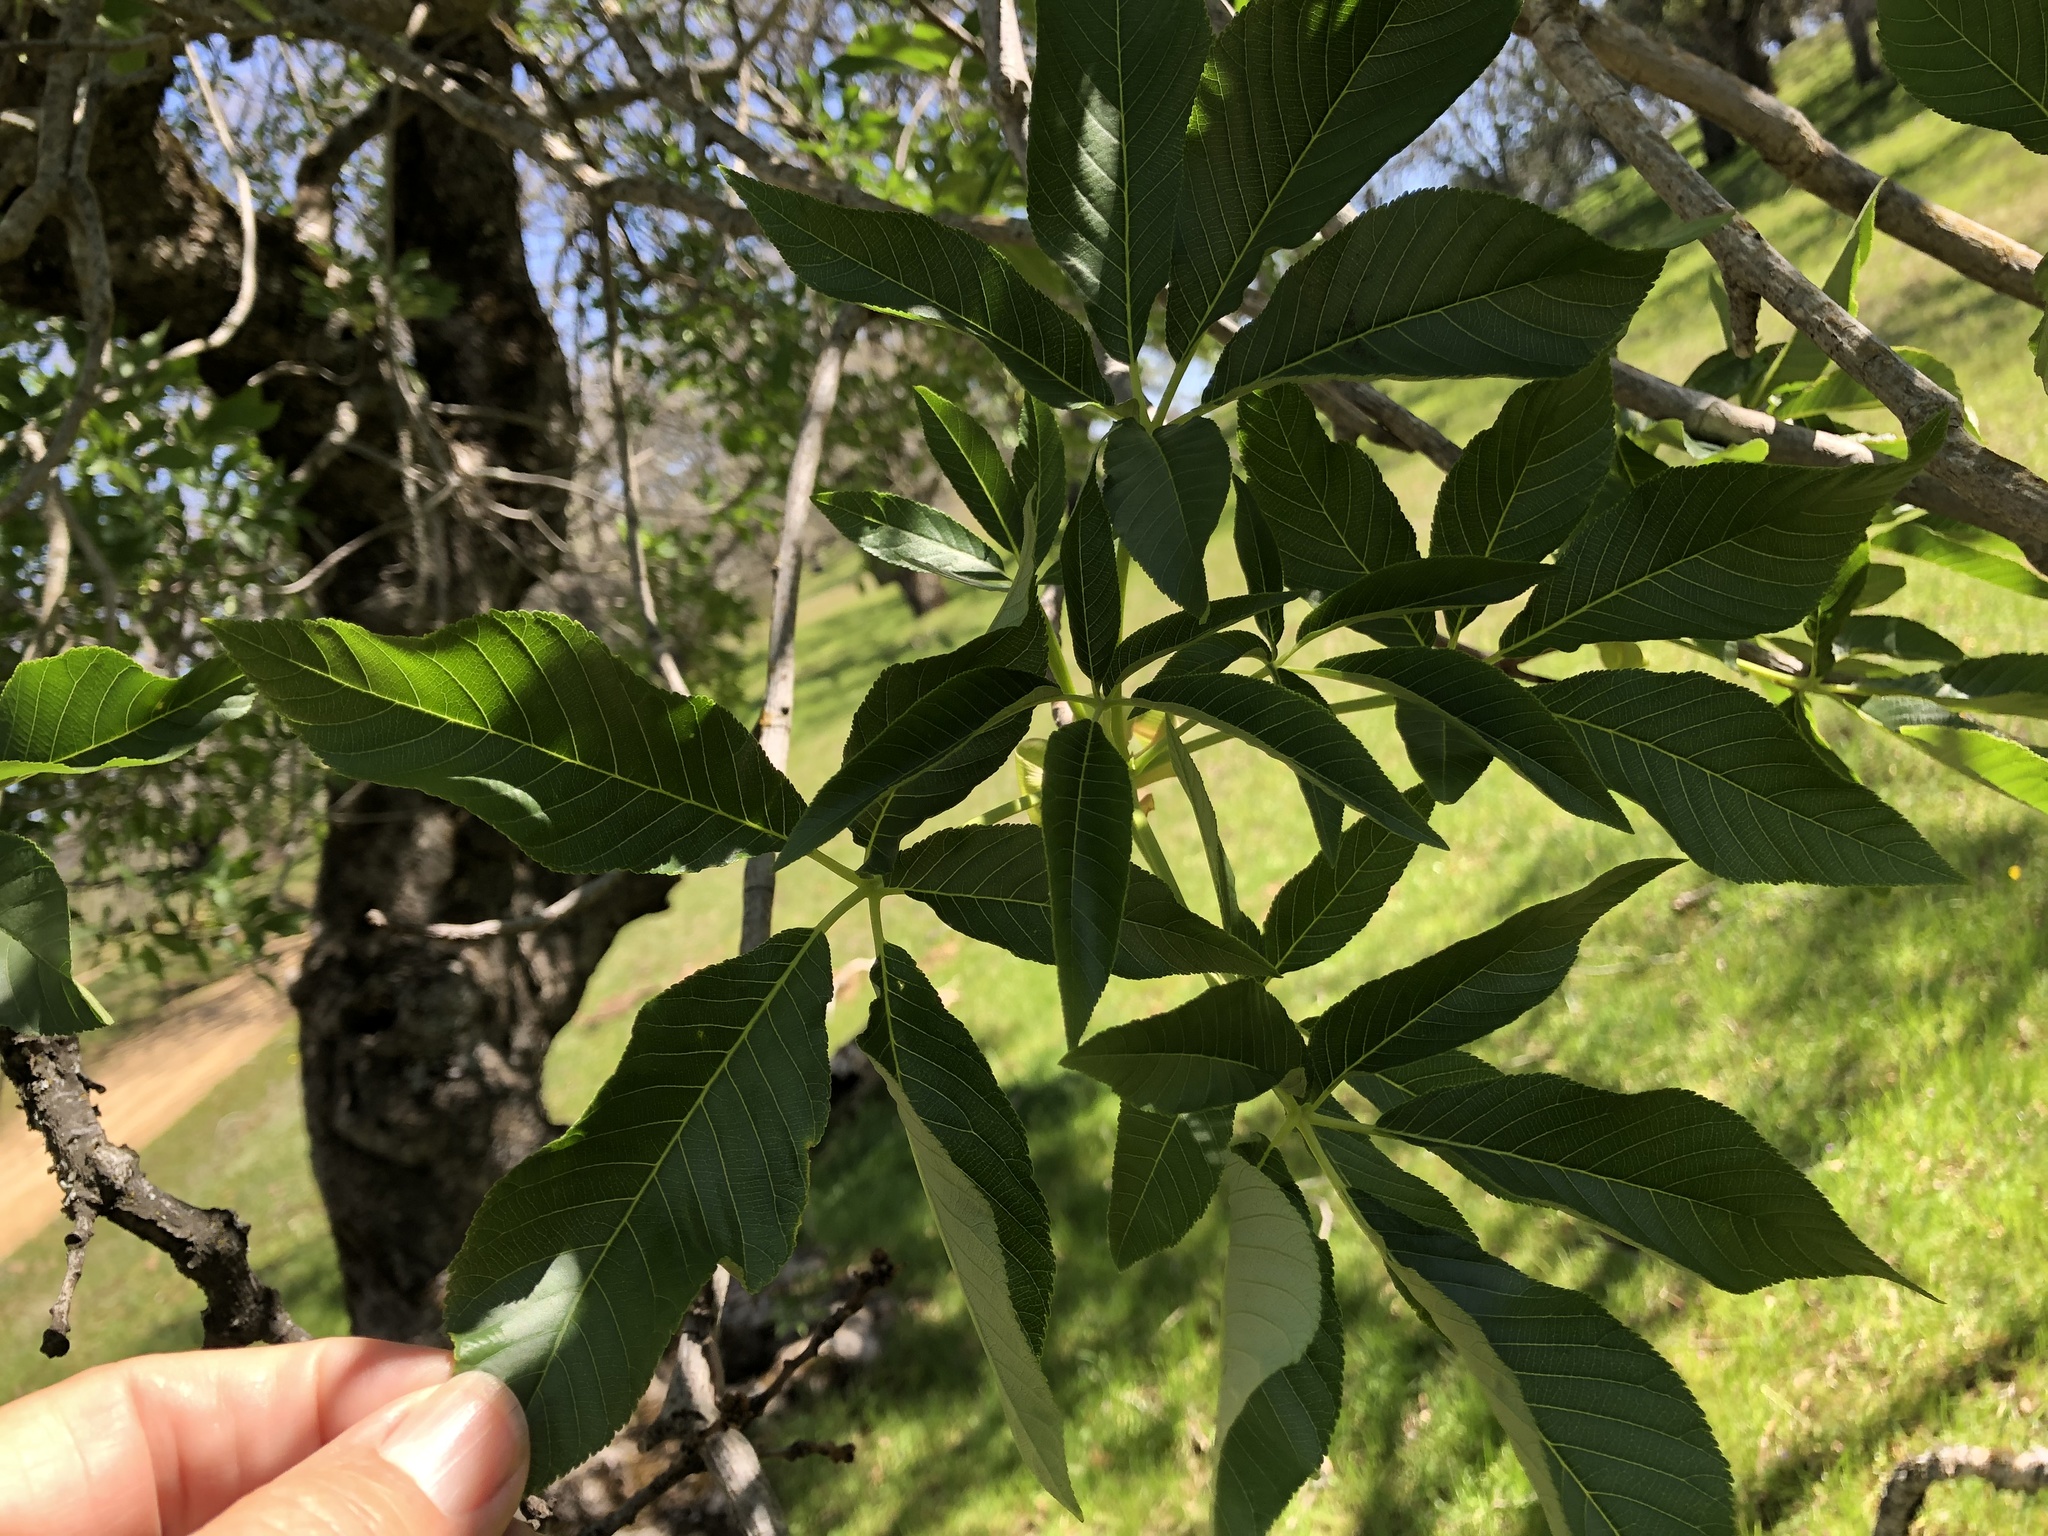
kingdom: Plantae
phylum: Tracheophyta
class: Magnoliopsida
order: Sapindales
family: Sapindaceae
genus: Aesculus
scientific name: Aesculus californica
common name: California buckeye
